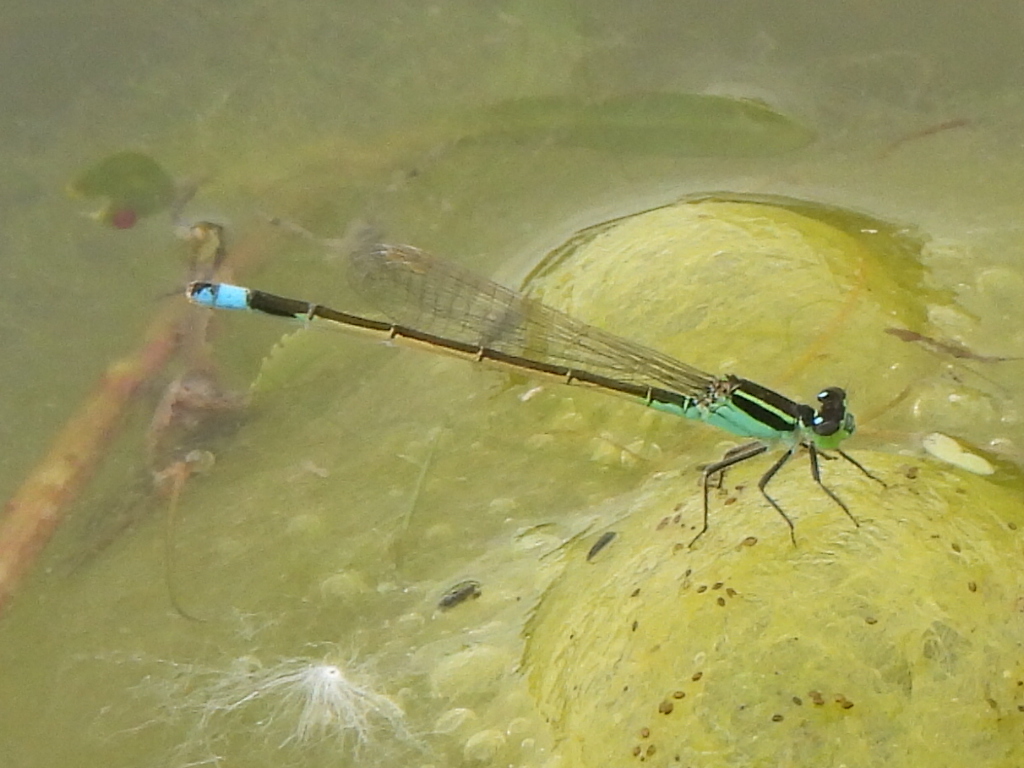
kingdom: Animalia
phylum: Arthropoda
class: Insecta
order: Odonata
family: Coenagrionidae
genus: Ischnura
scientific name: Ischnura ramburii
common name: Rambur's forktail
